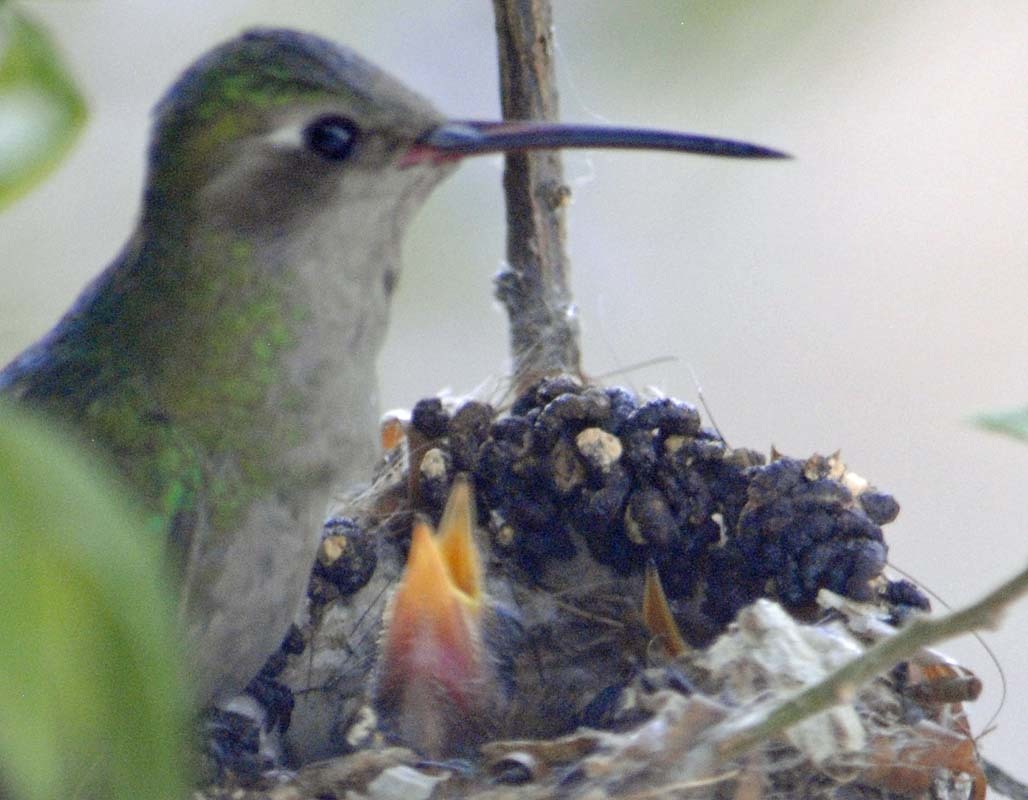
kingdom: Animalia
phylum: Chordata
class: Aves
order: Apodiformes
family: Trochilidae
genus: Cynanthus
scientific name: Cynanthus latirostris
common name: Broad-billed hummingbird
